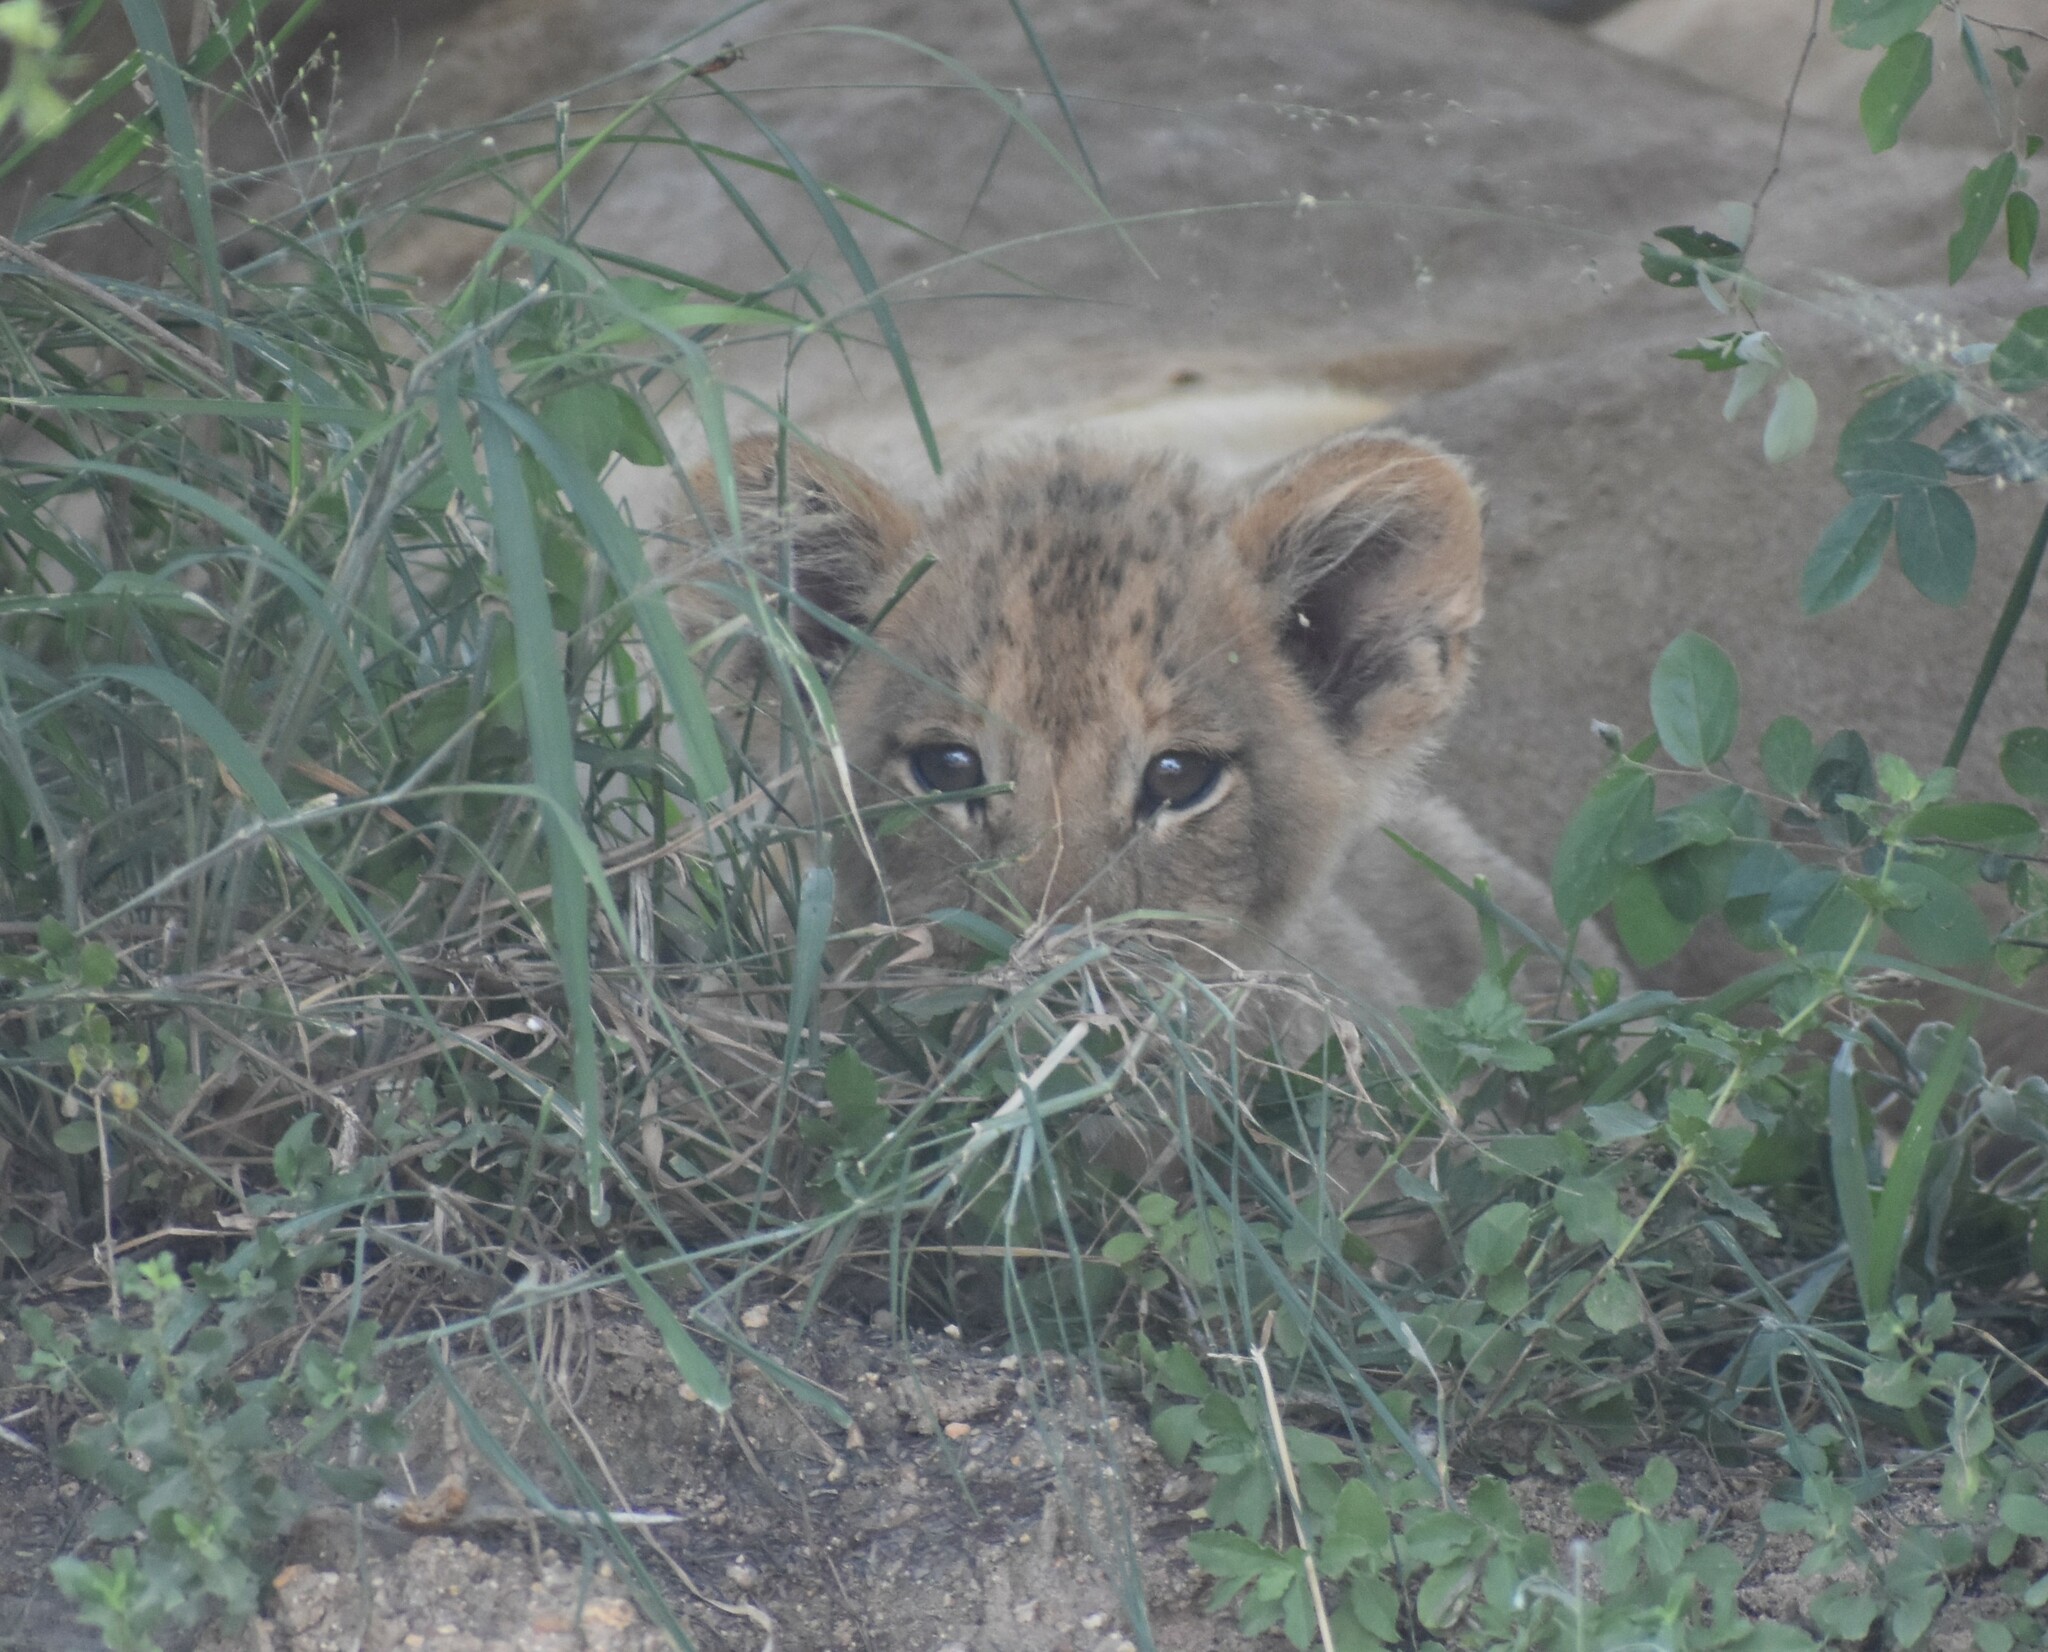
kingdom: Animalia
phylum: Chordata
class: Mammalia
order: Carnivora
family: Felidae
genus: Panthera
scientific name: Panthera leo
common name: Lion
